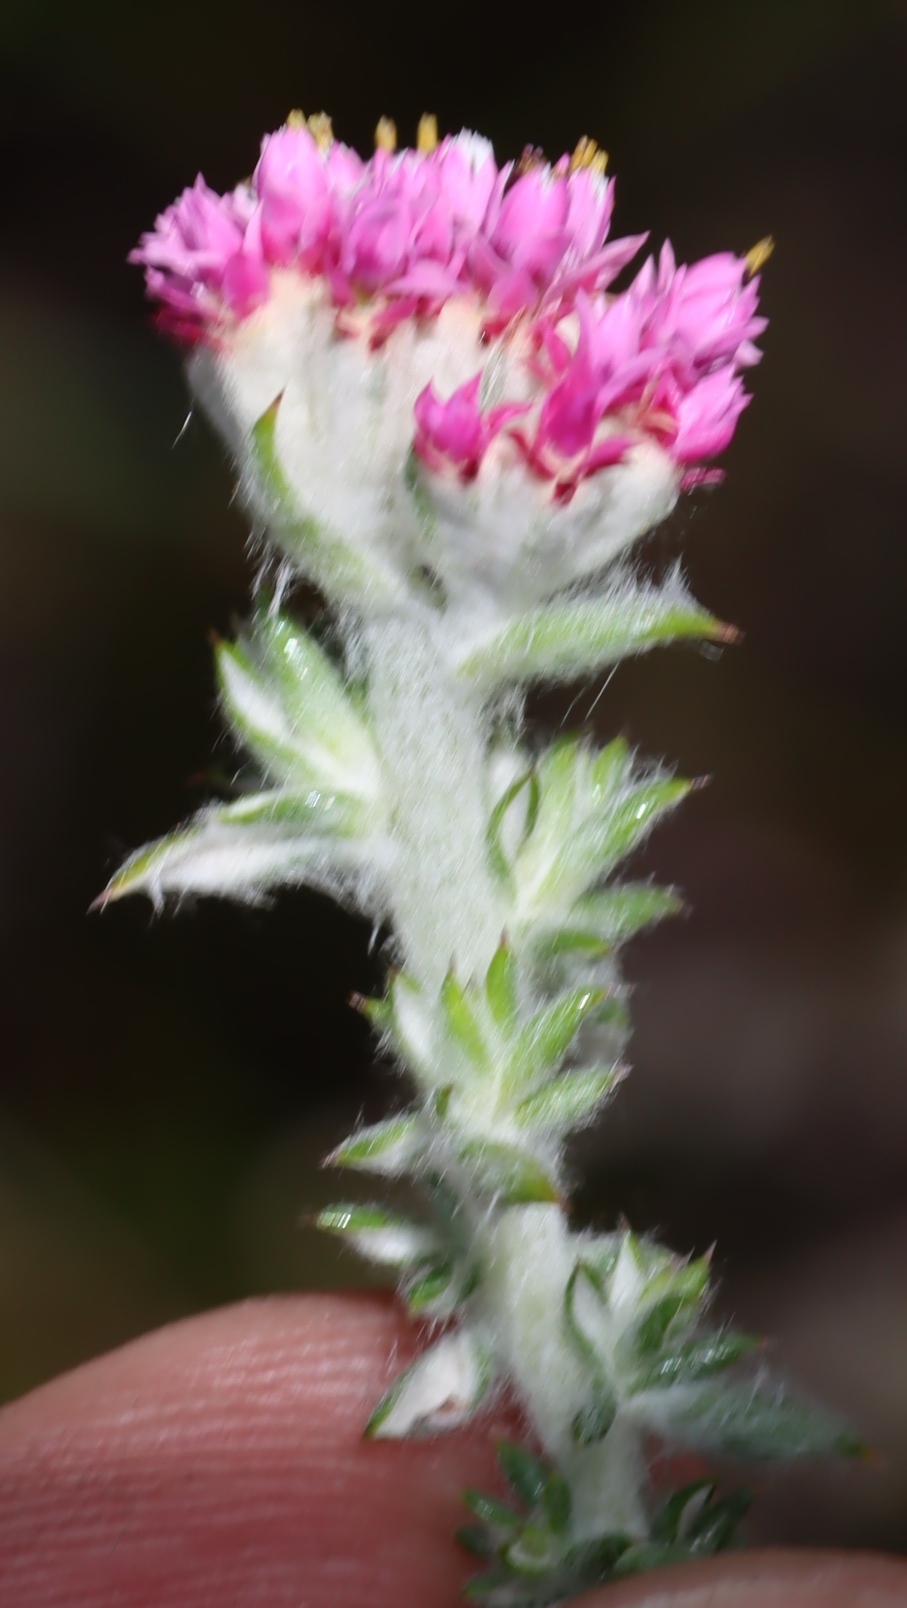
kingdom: Plantae
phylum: Tracheophyta
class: Magnoliopsida
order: Asterales
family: Asteraceae
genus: Metalasia
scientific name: Metalasia cephalotes
